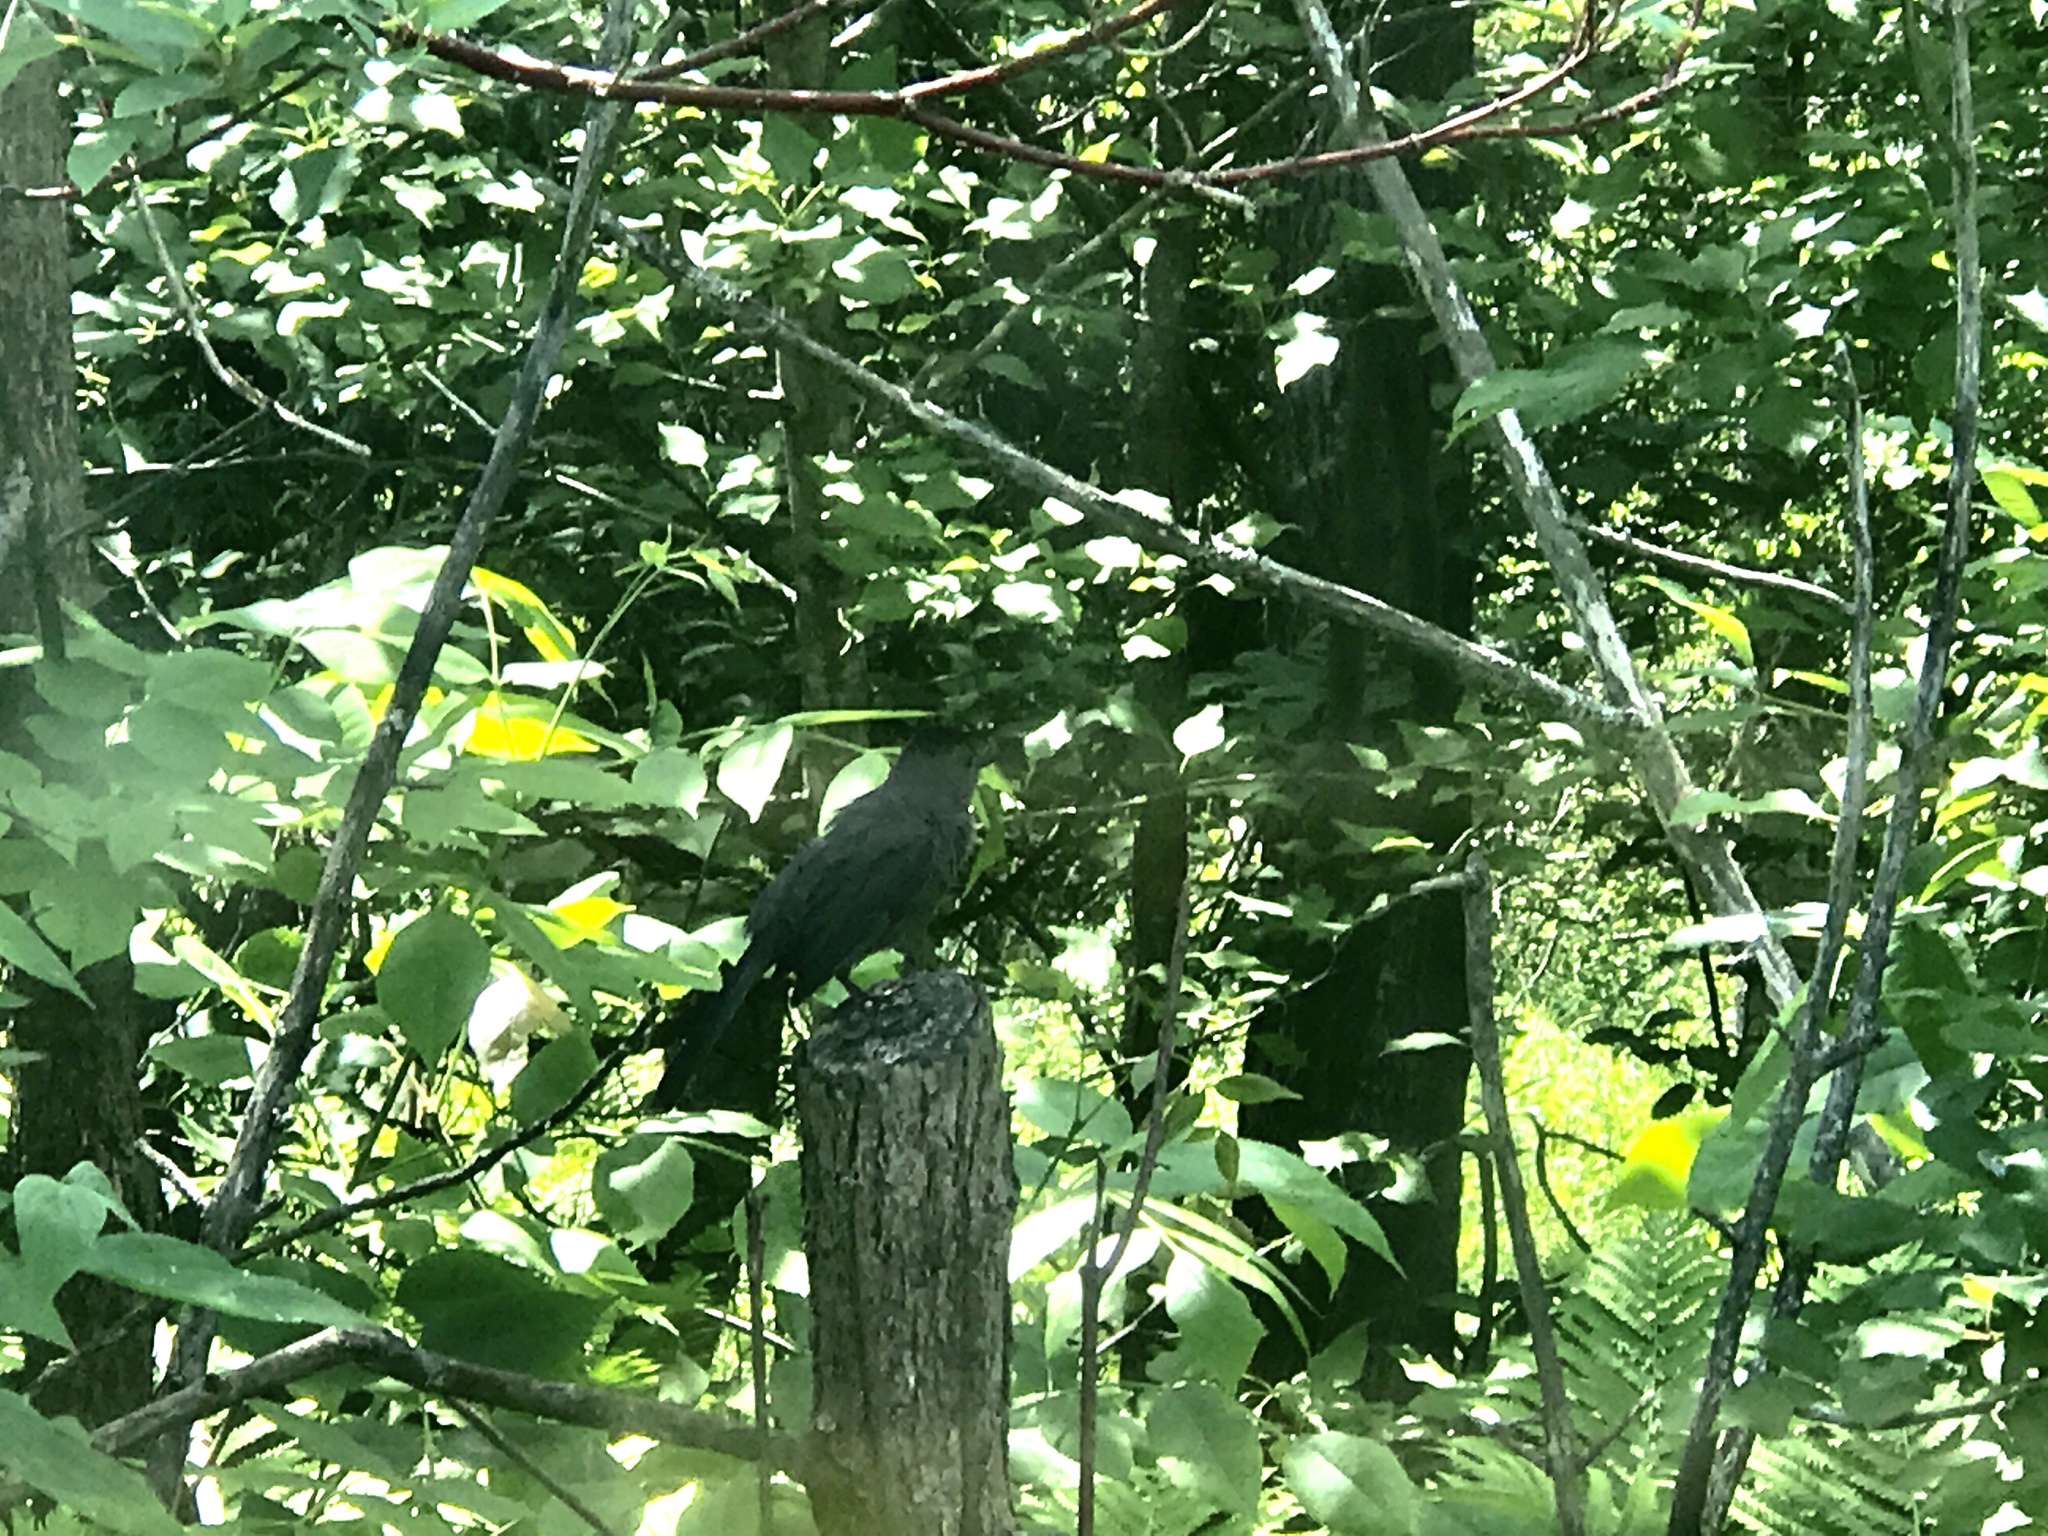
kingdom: Animalia
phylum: Chordata
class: Aves
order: Passeriformes
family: Mimidae
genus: Dumetella
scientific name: Dumetella carolinensis
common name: Gray catbird
